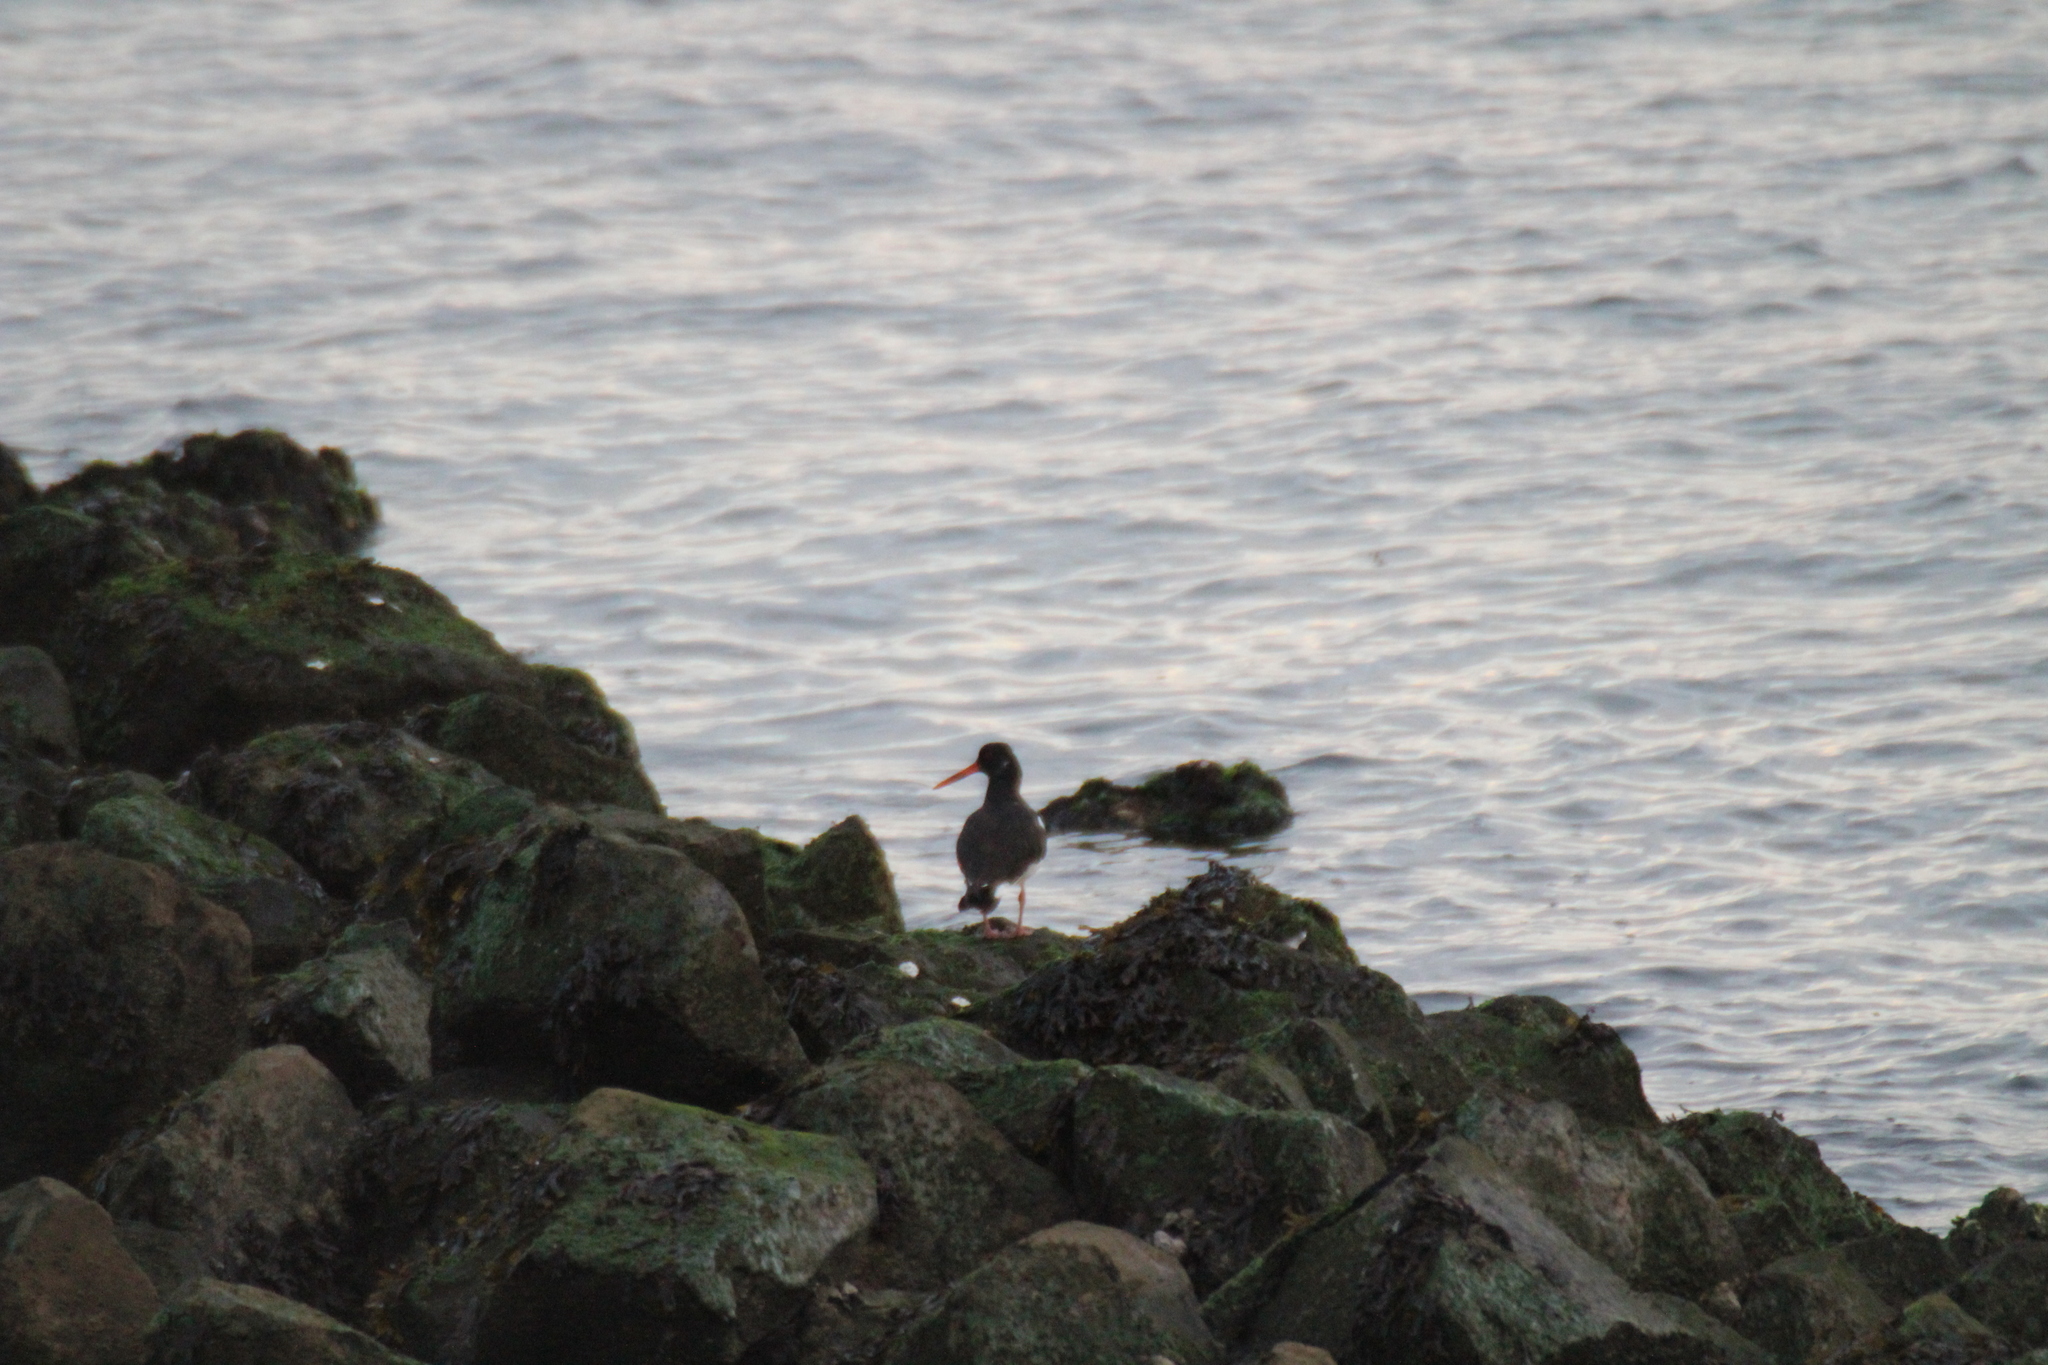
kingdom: Animalia
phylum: Chordata
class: Aves
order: Charadriiformes
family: Haematopodidae
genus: Haematopus
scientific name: Haematopus ostralegus
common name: Eurasian oystercatcher
